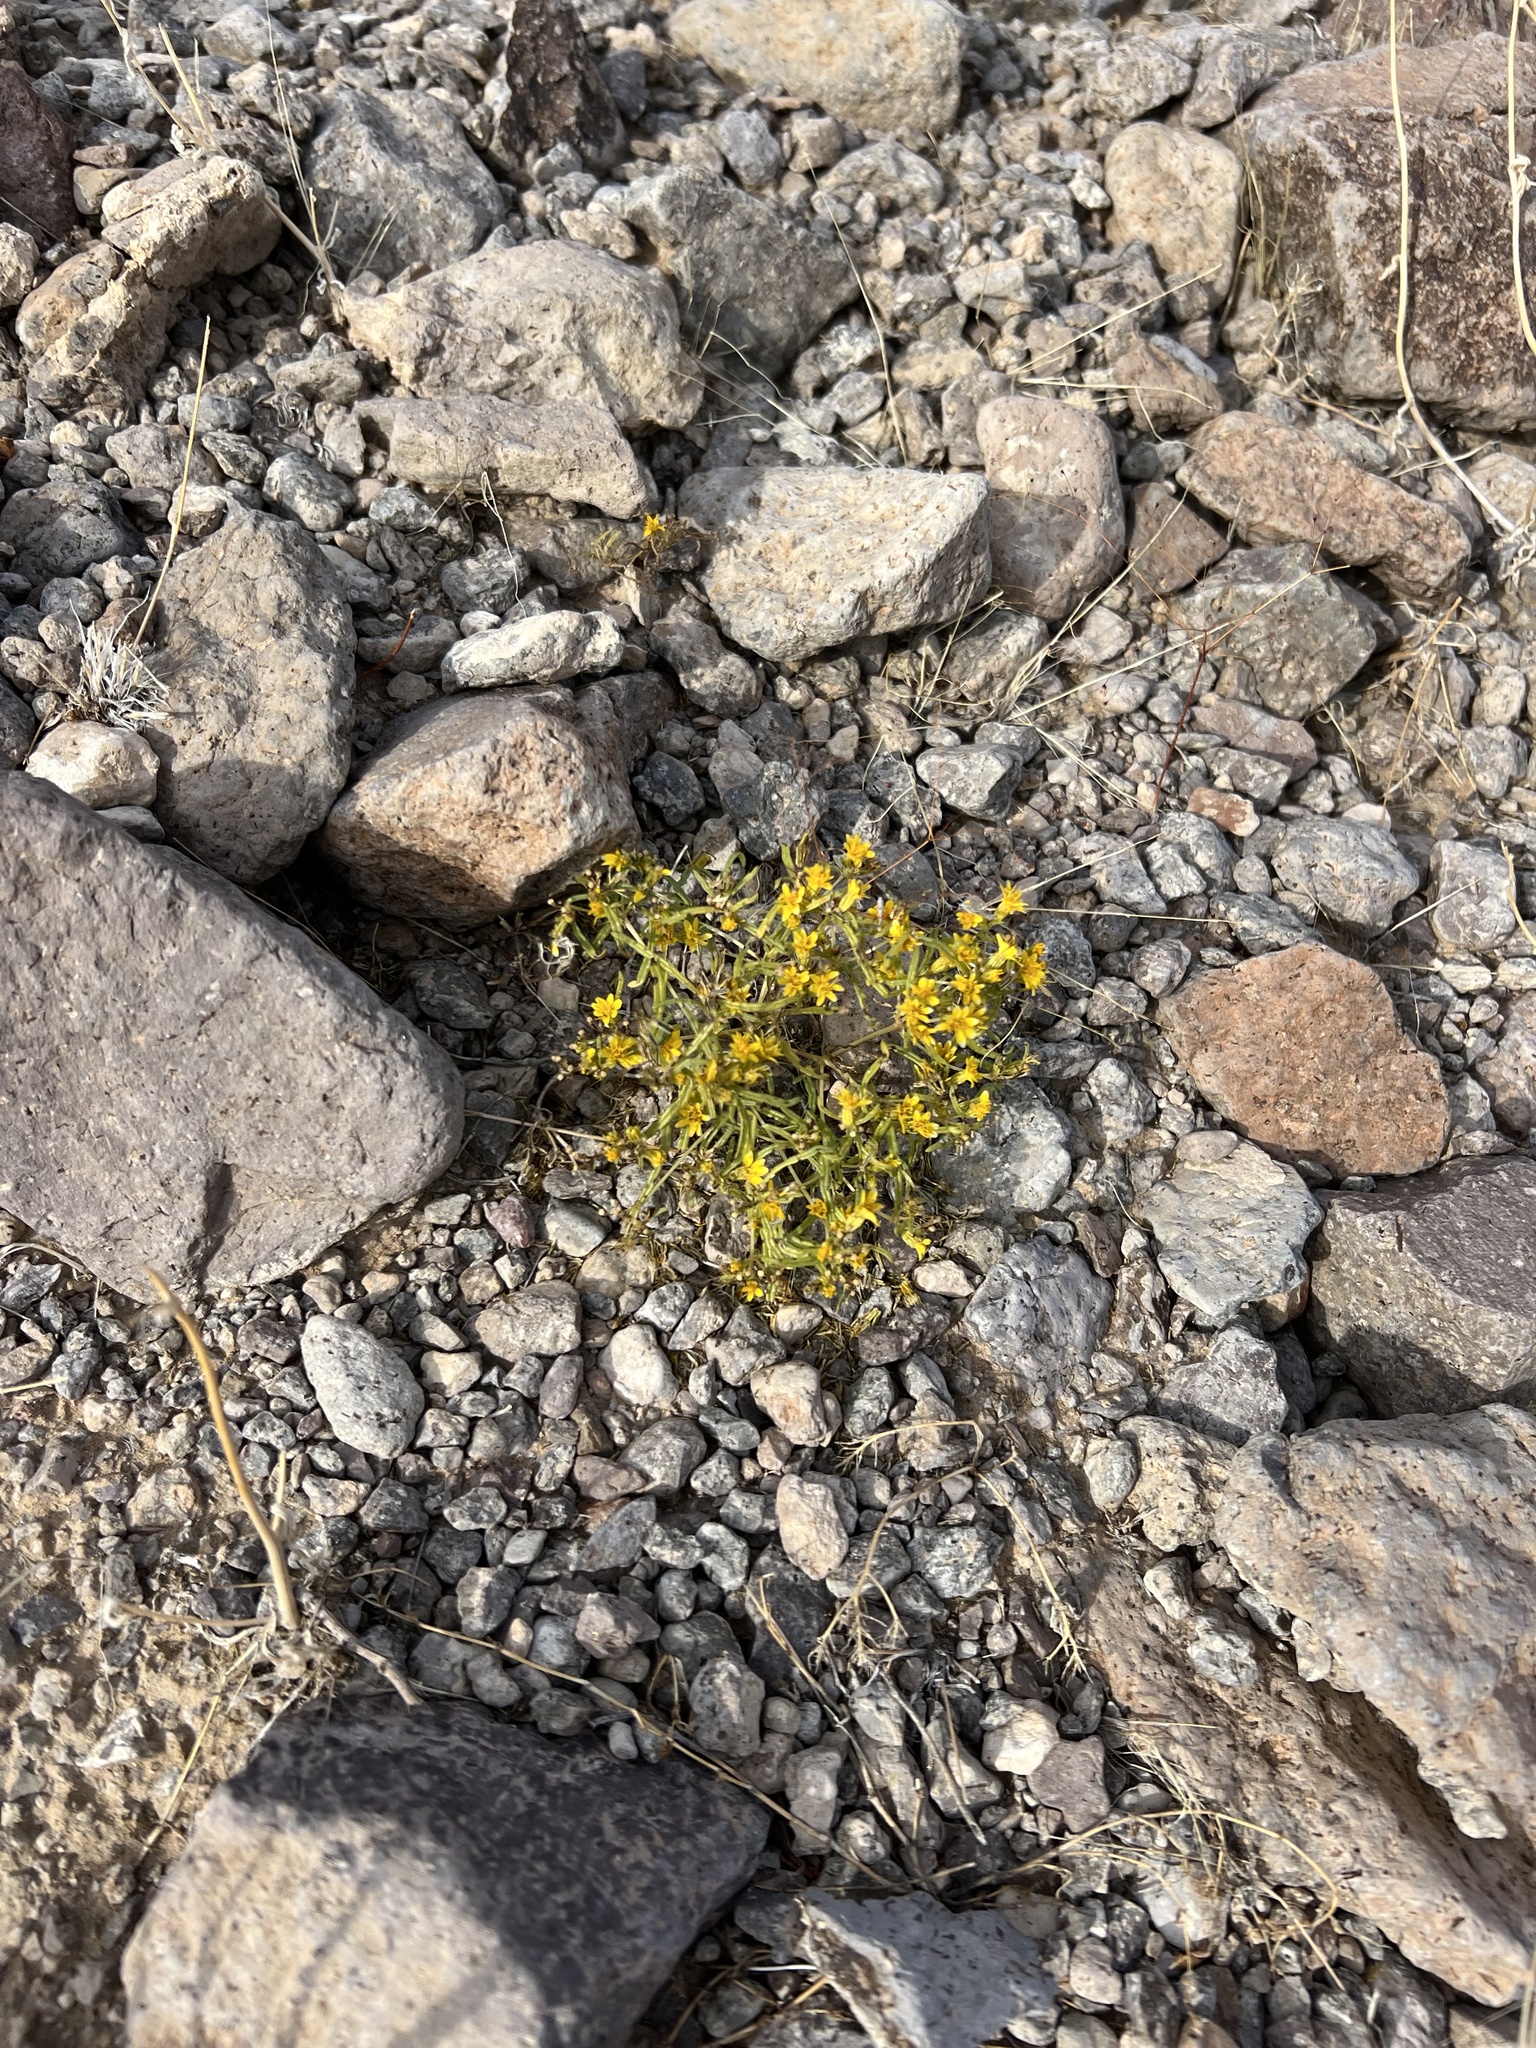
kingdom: Plantae
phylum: Tracheophyta
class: Magnoliopsida
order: Asterales
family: Asteraceae
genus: Pectis
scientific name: Pectis papposa
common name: Many-bristle chinchweed
